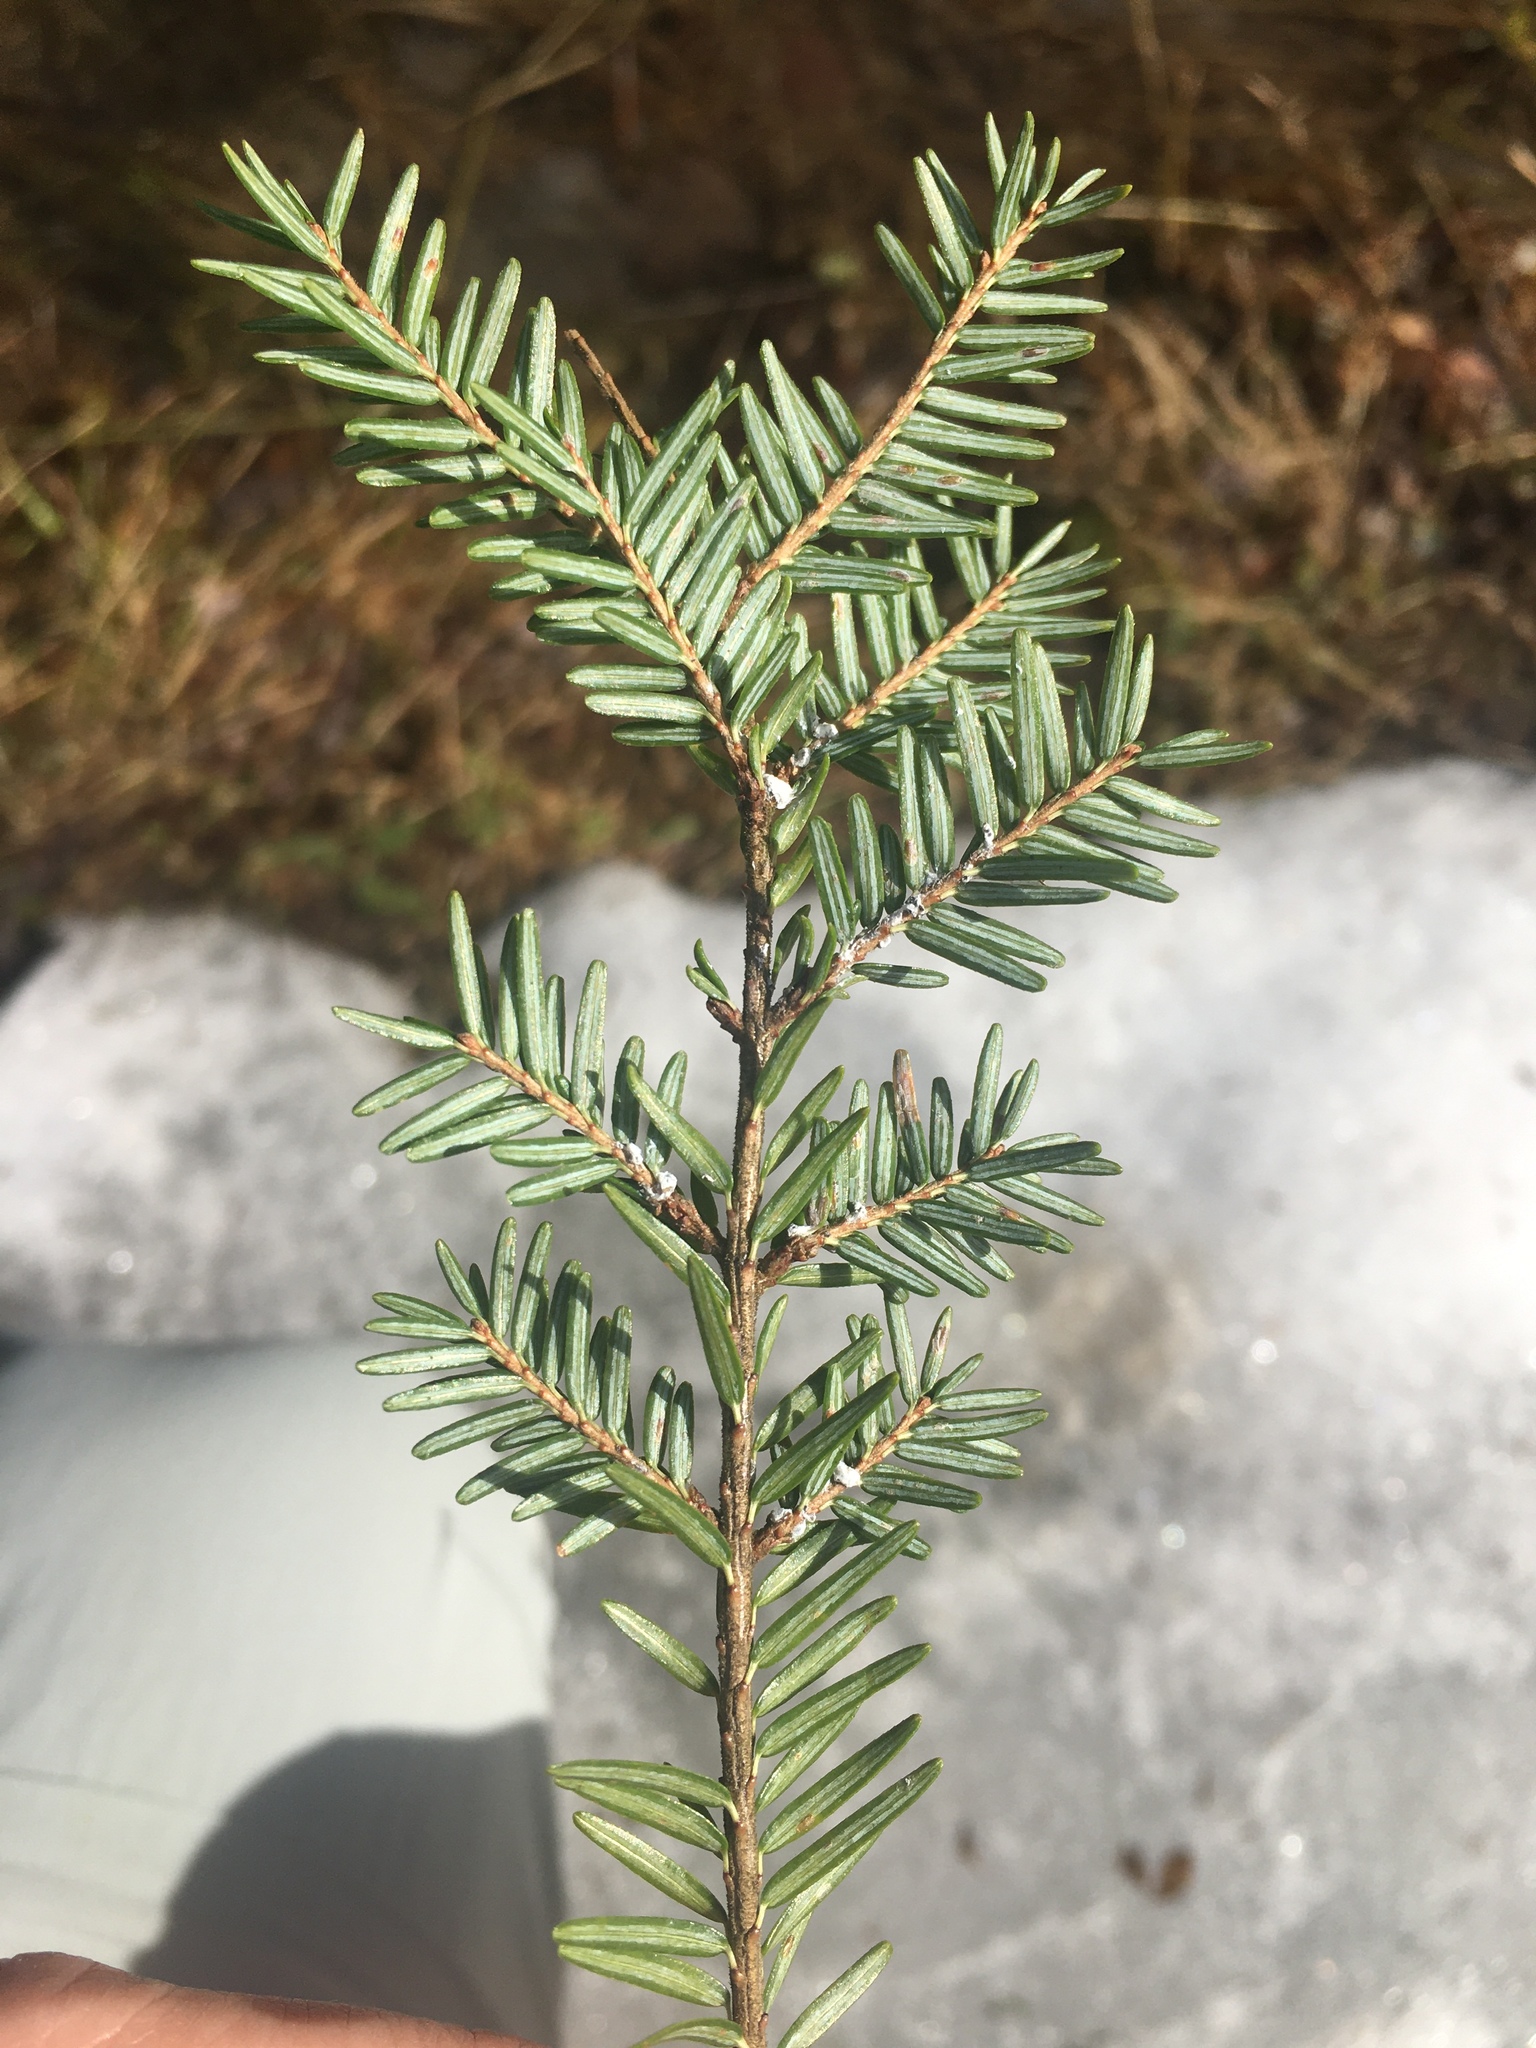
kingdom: Animalia
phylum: Arthropoda
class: Insecta
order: Hemiptera
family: Adelgidae
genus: Adelges
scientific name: Adelges tsugae
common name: Hemlock woolly adelgid
